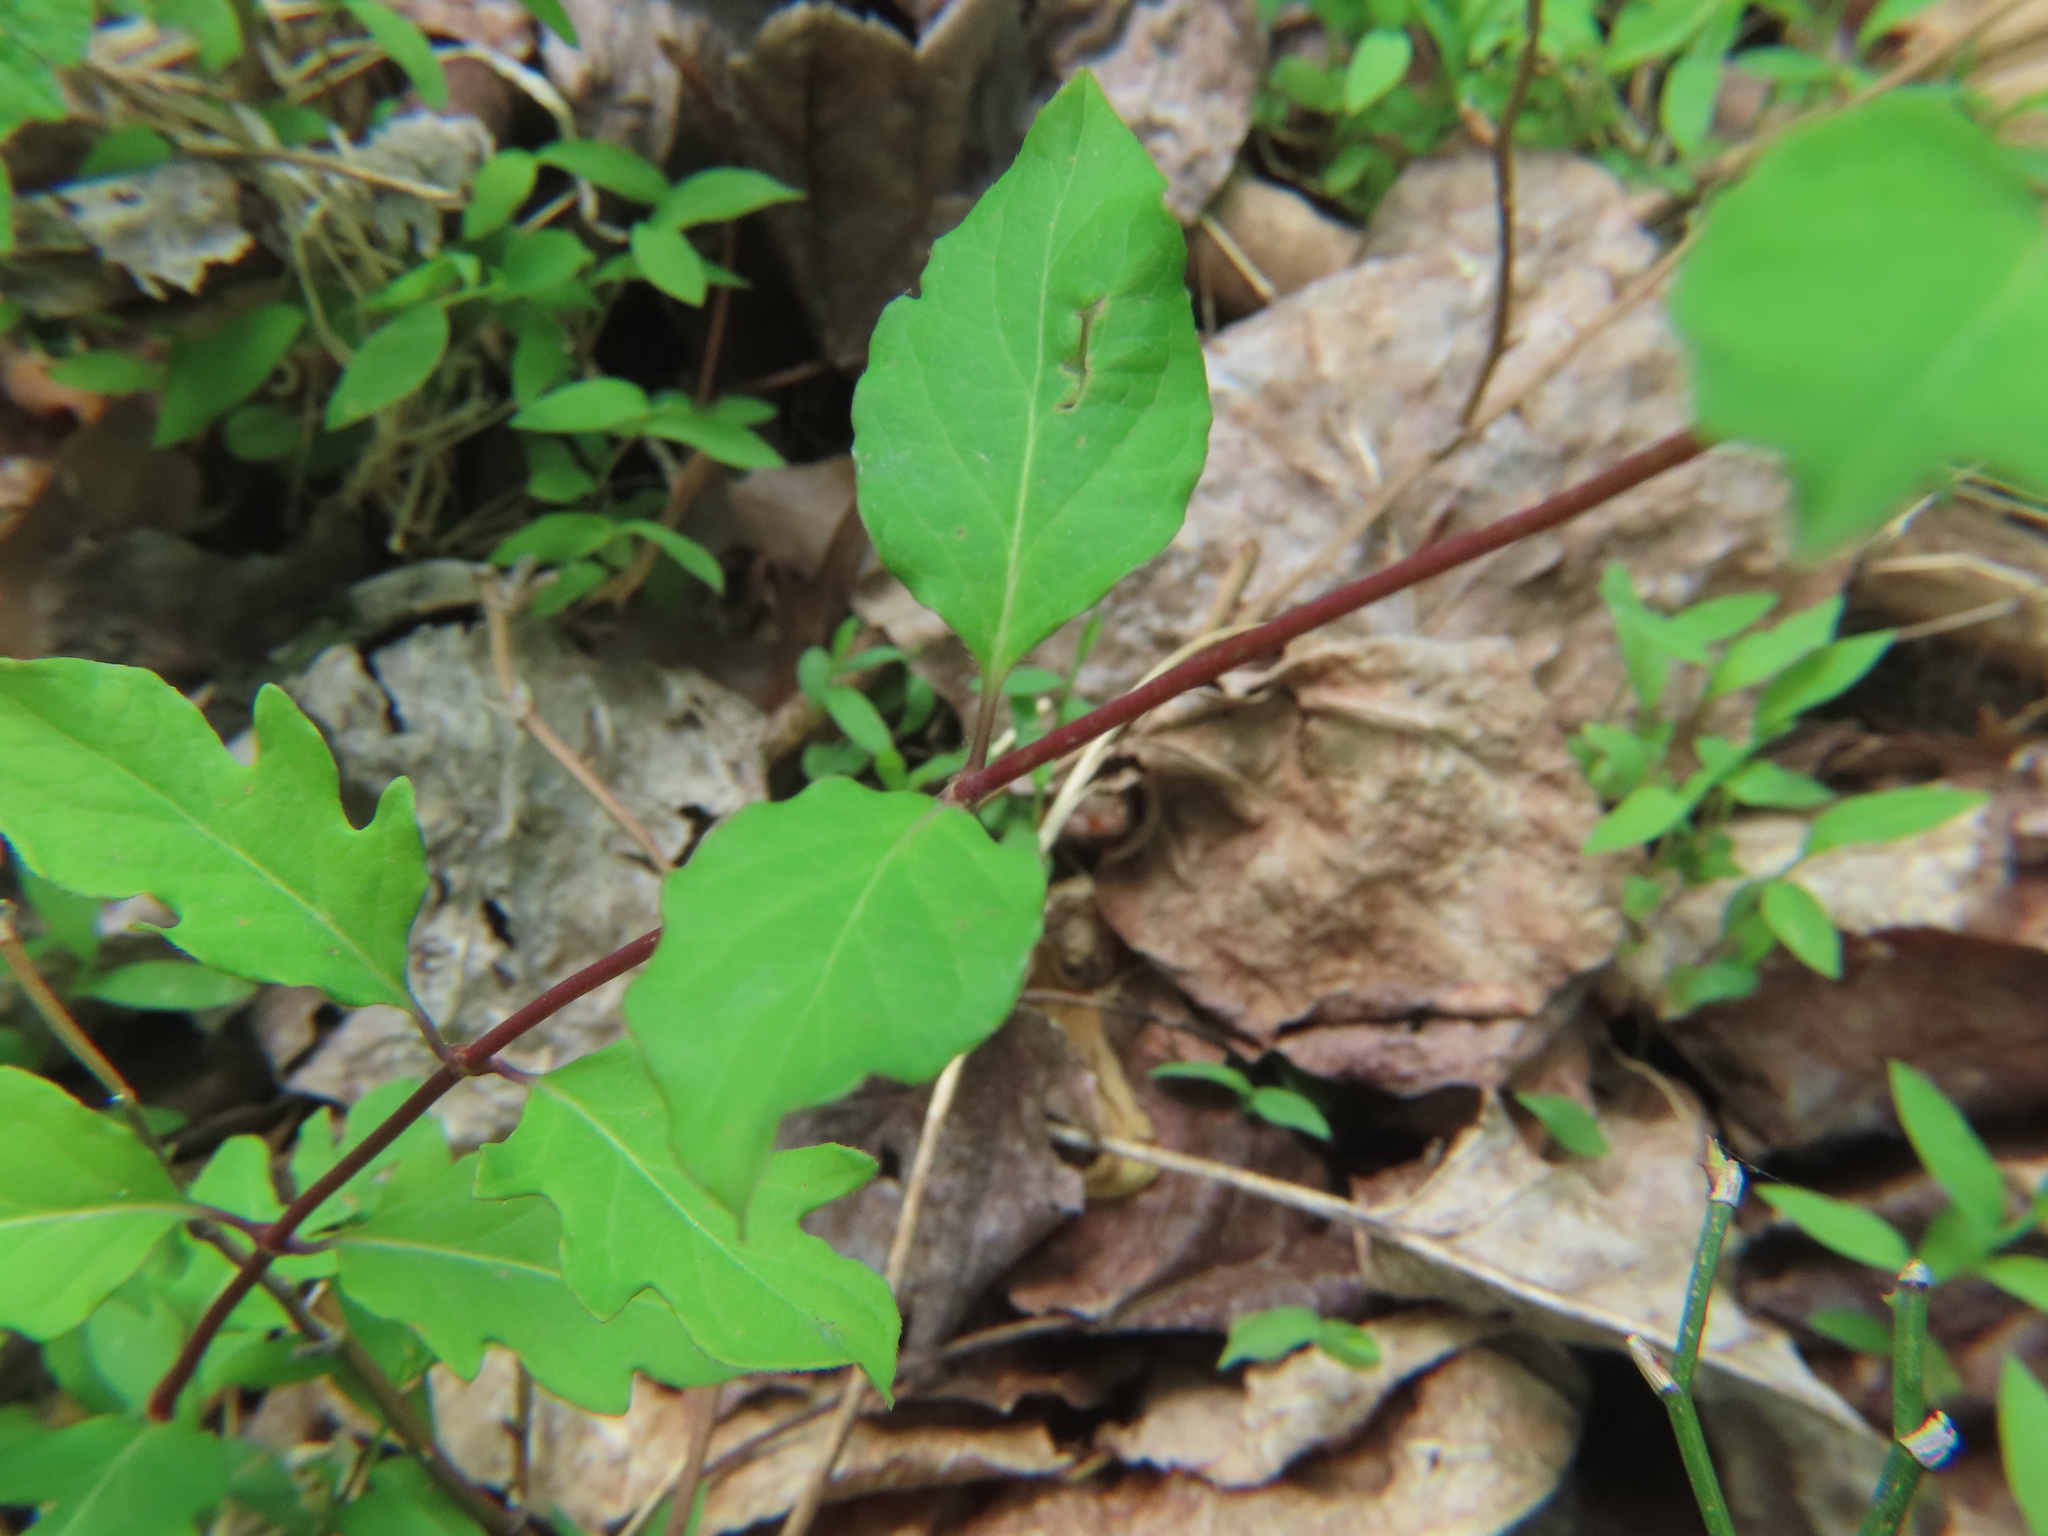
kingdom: Plantae
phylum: Tracheophyta
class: Magnoliopsida
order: Dipsacales
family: Caprifoliaceae
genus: Lonicera
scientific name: Lonicera japonica
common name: Japanese honeysuckle
